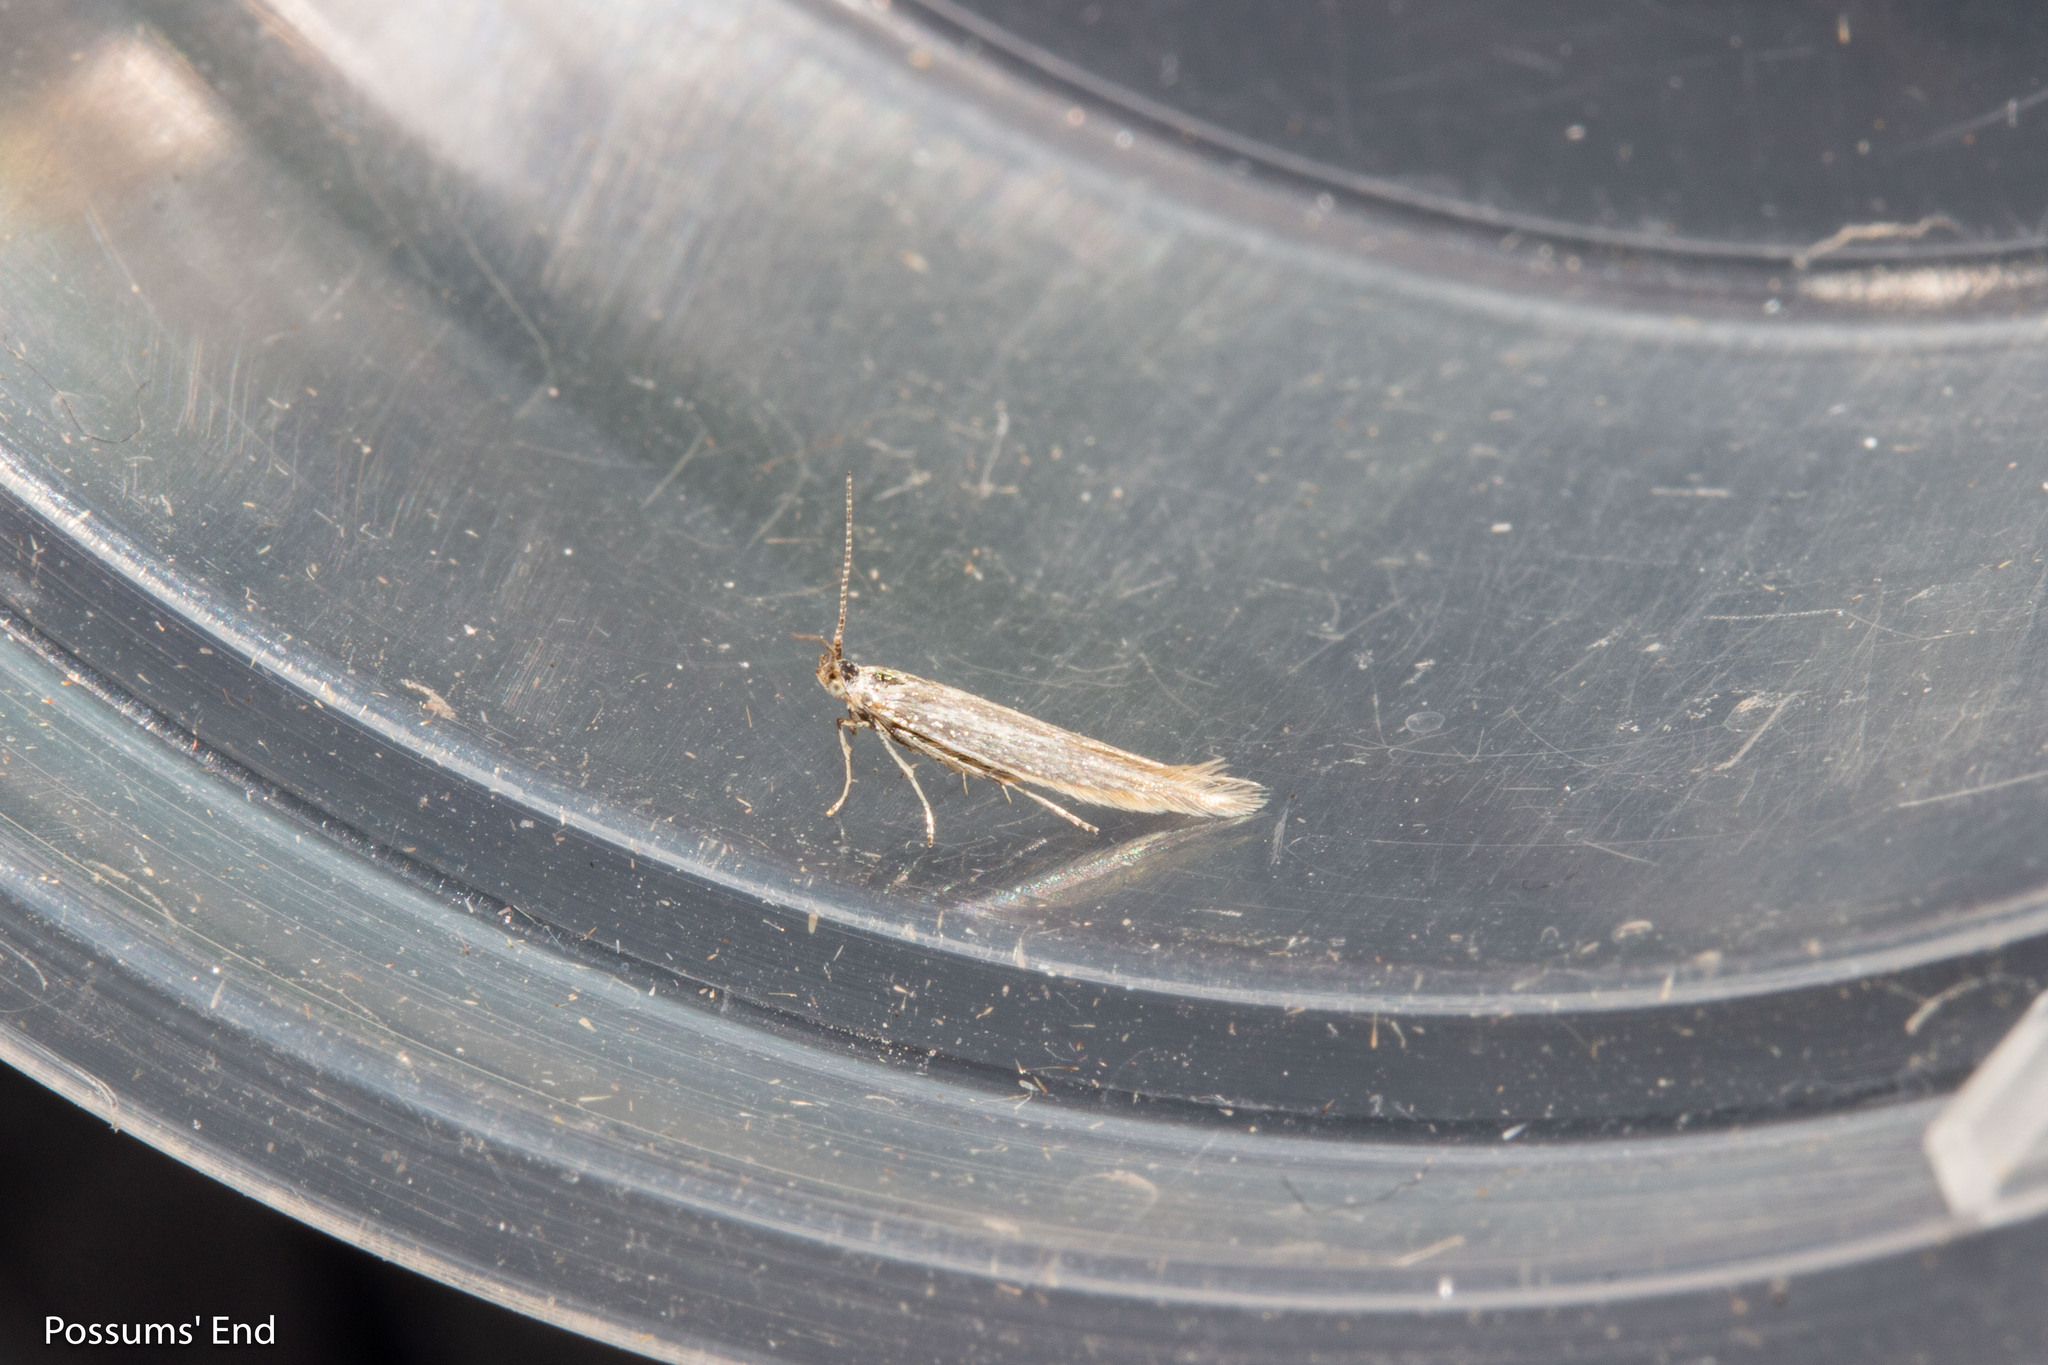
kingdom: Animalia
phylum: Arthropoda
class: Insecta
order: Lepidoptera
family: Coleophoridae
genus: Coleophora
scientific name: Coleophora striatipennella
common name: Hedge case-bearer
